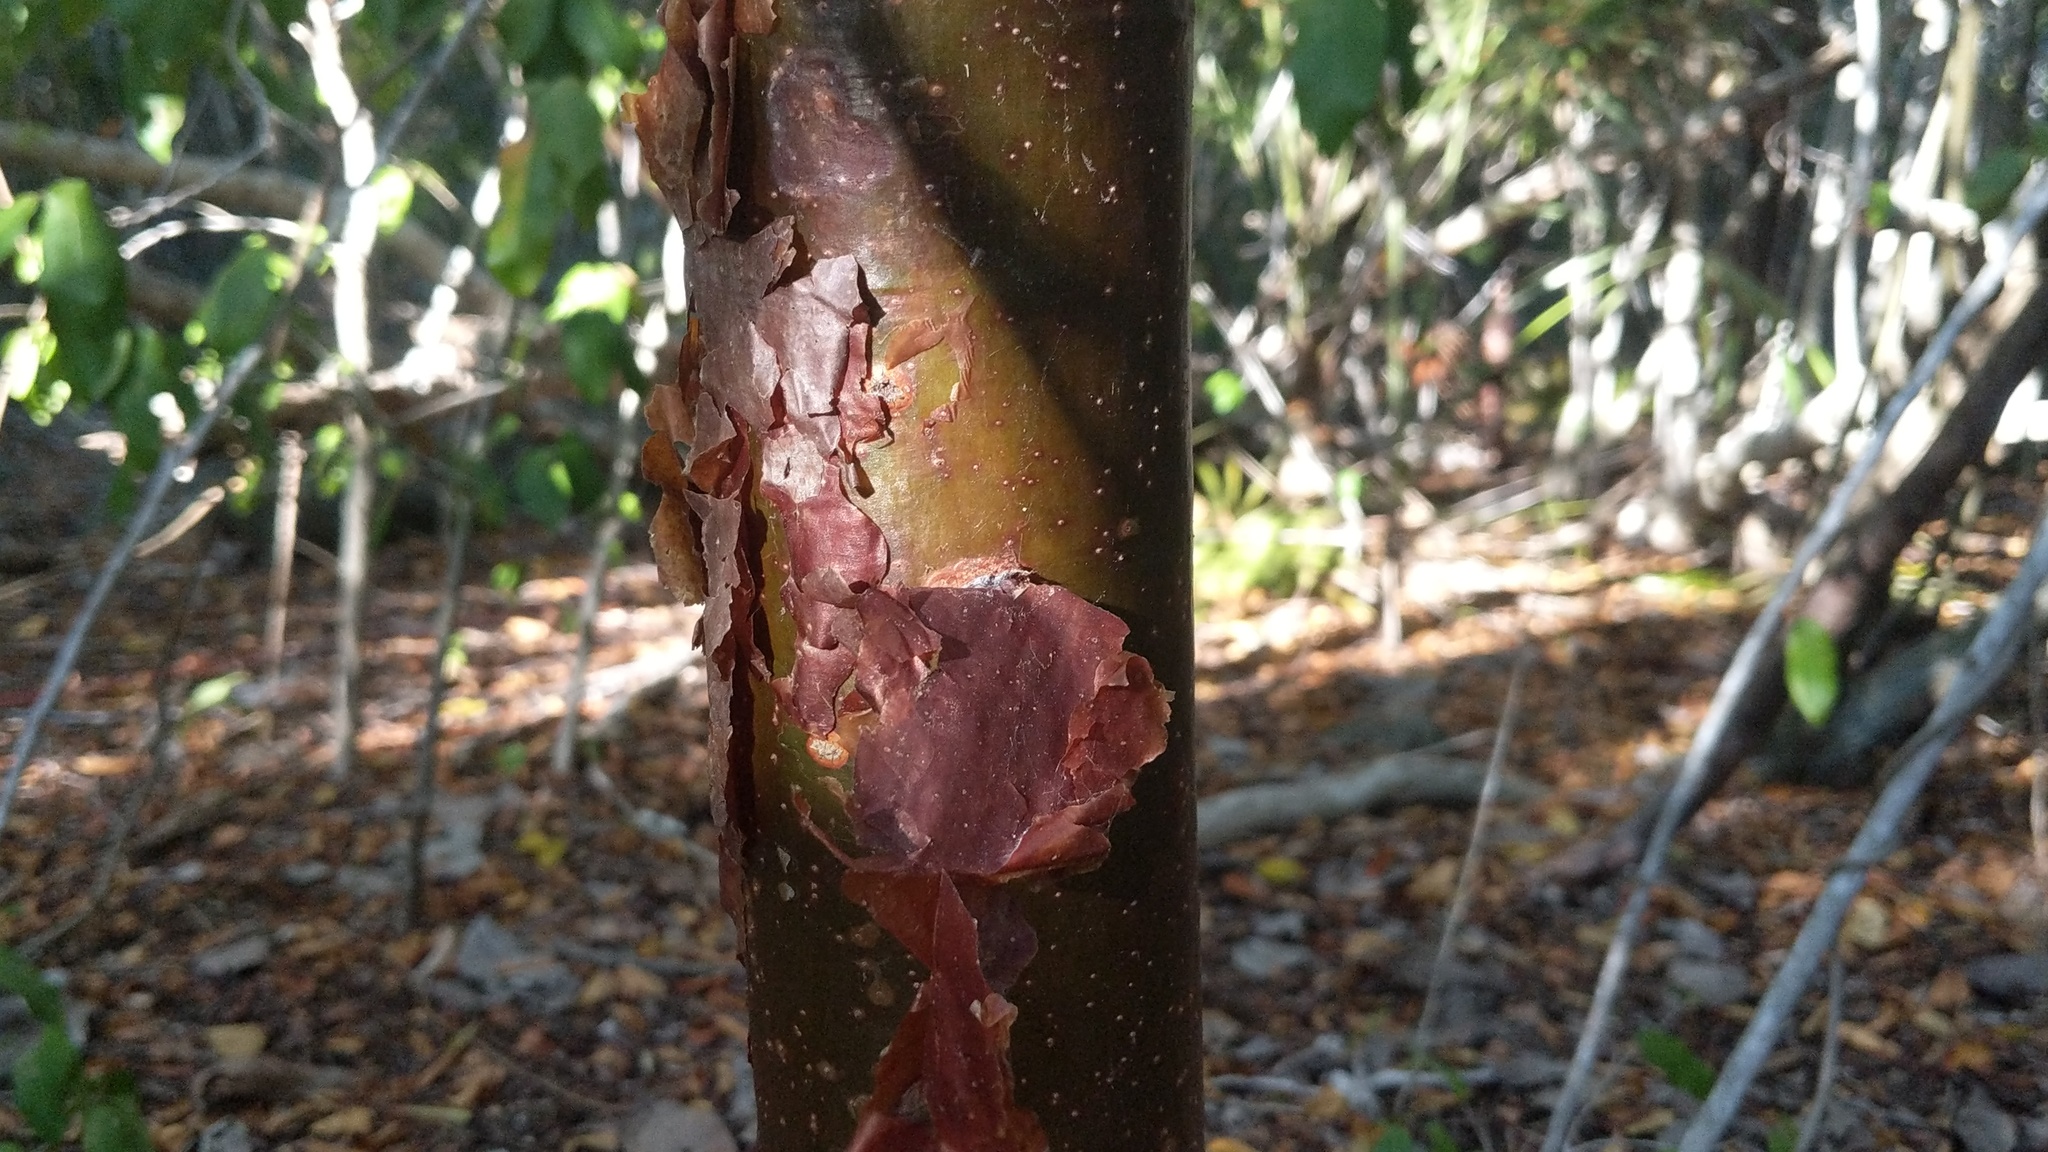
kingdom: Plantae
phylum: Tracheophyta
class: Magnoliopsida
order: Sapindales
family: Burseraceae
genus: Bursera
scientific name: Bursera simaruba
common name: Turpentine tree
